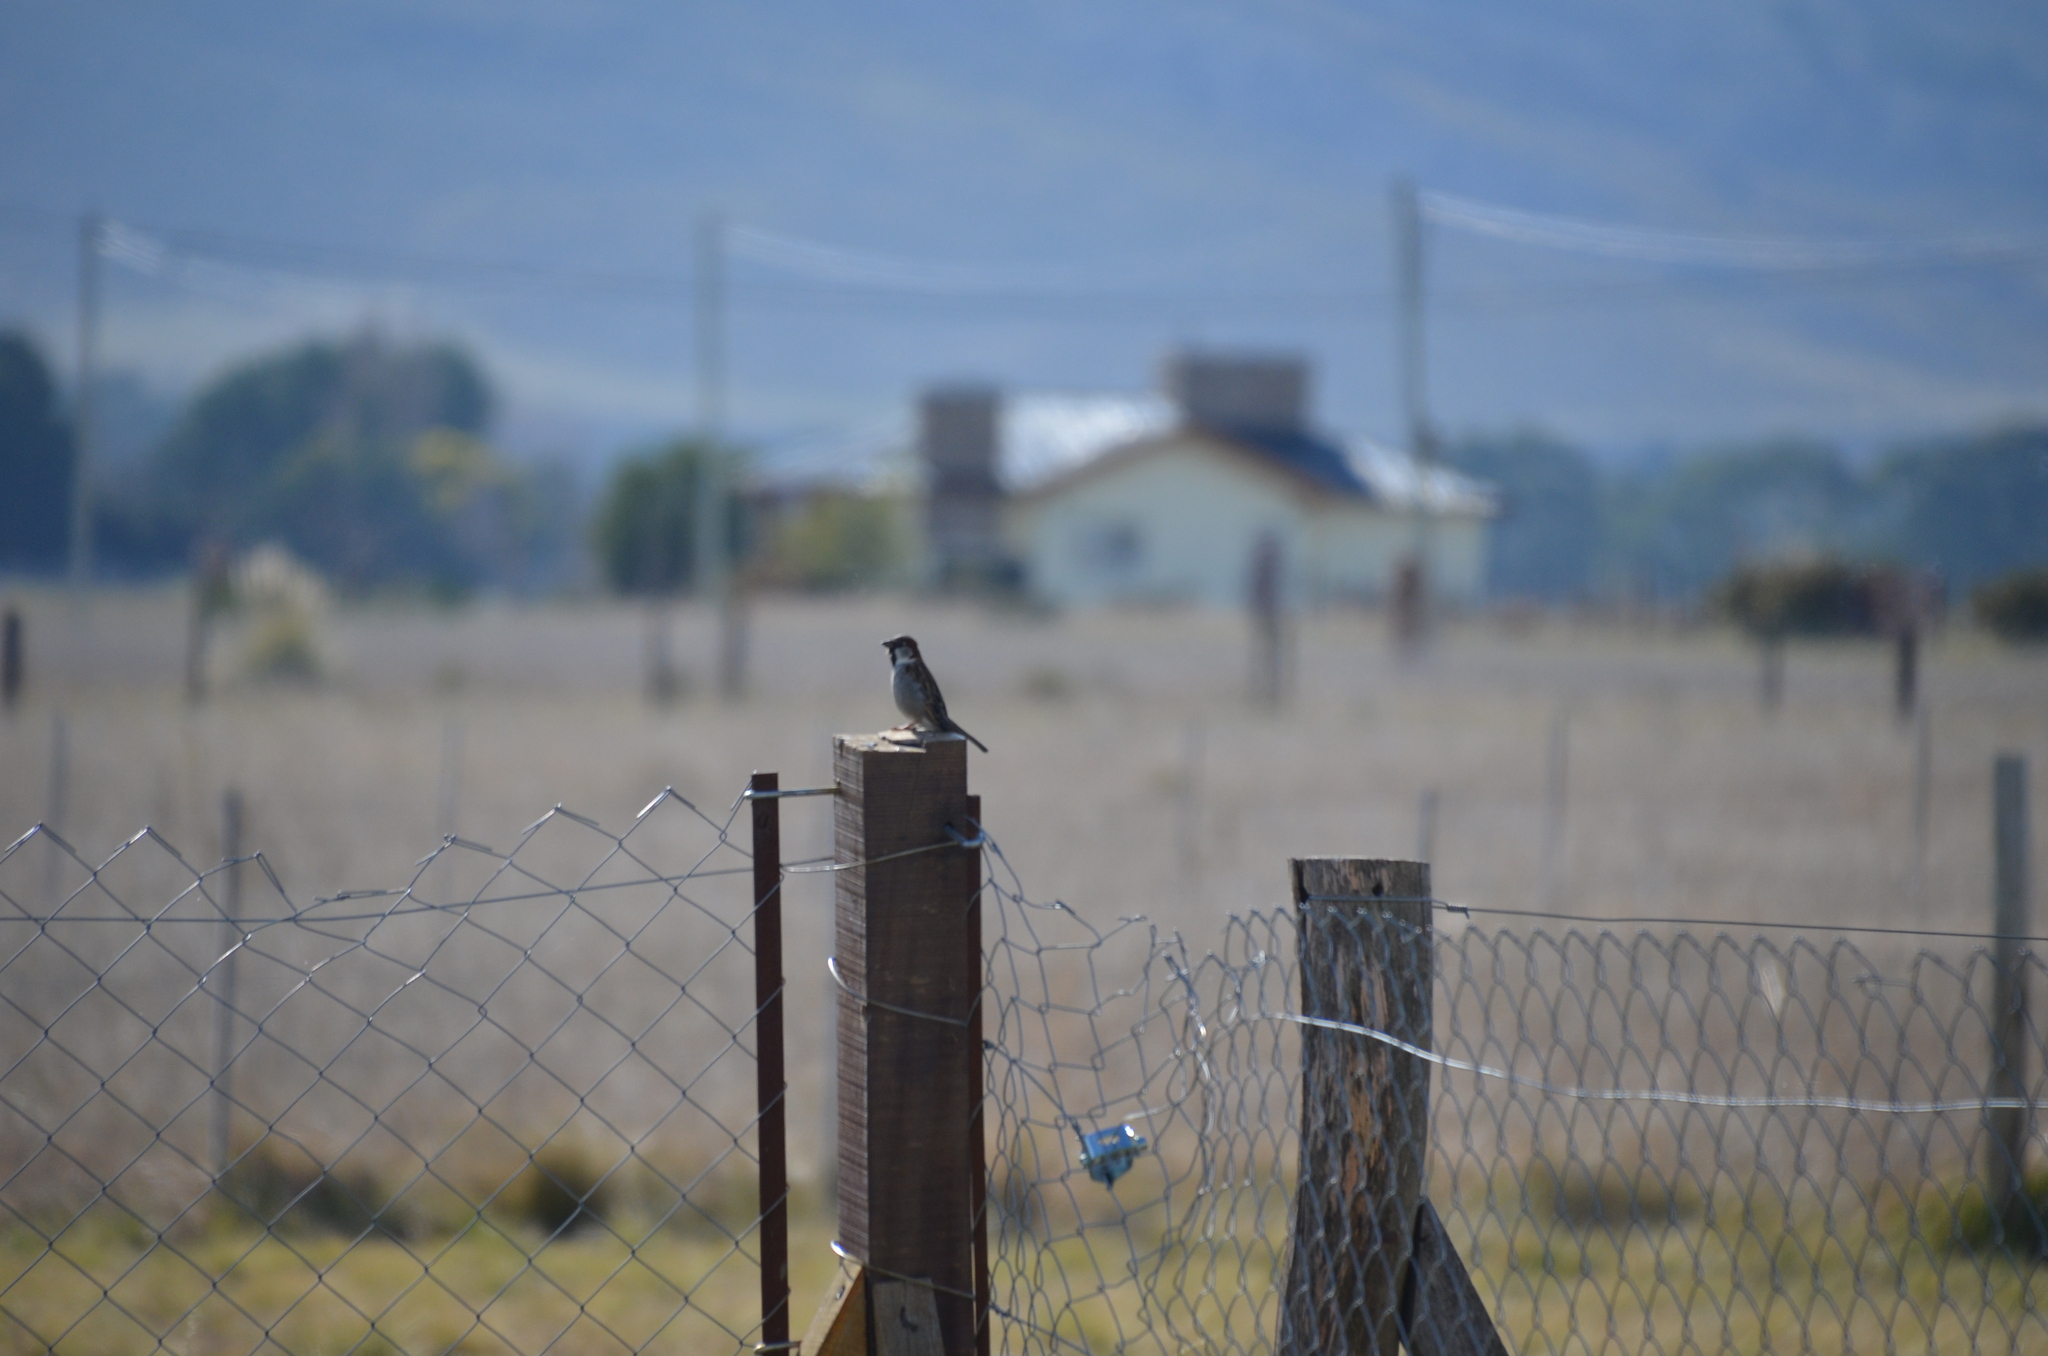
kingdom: Animalia
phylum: Chordata
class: Aves
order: Passeriformes
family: Passeridae
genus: Passer
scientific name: Passer domesticus
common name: House sparrow
